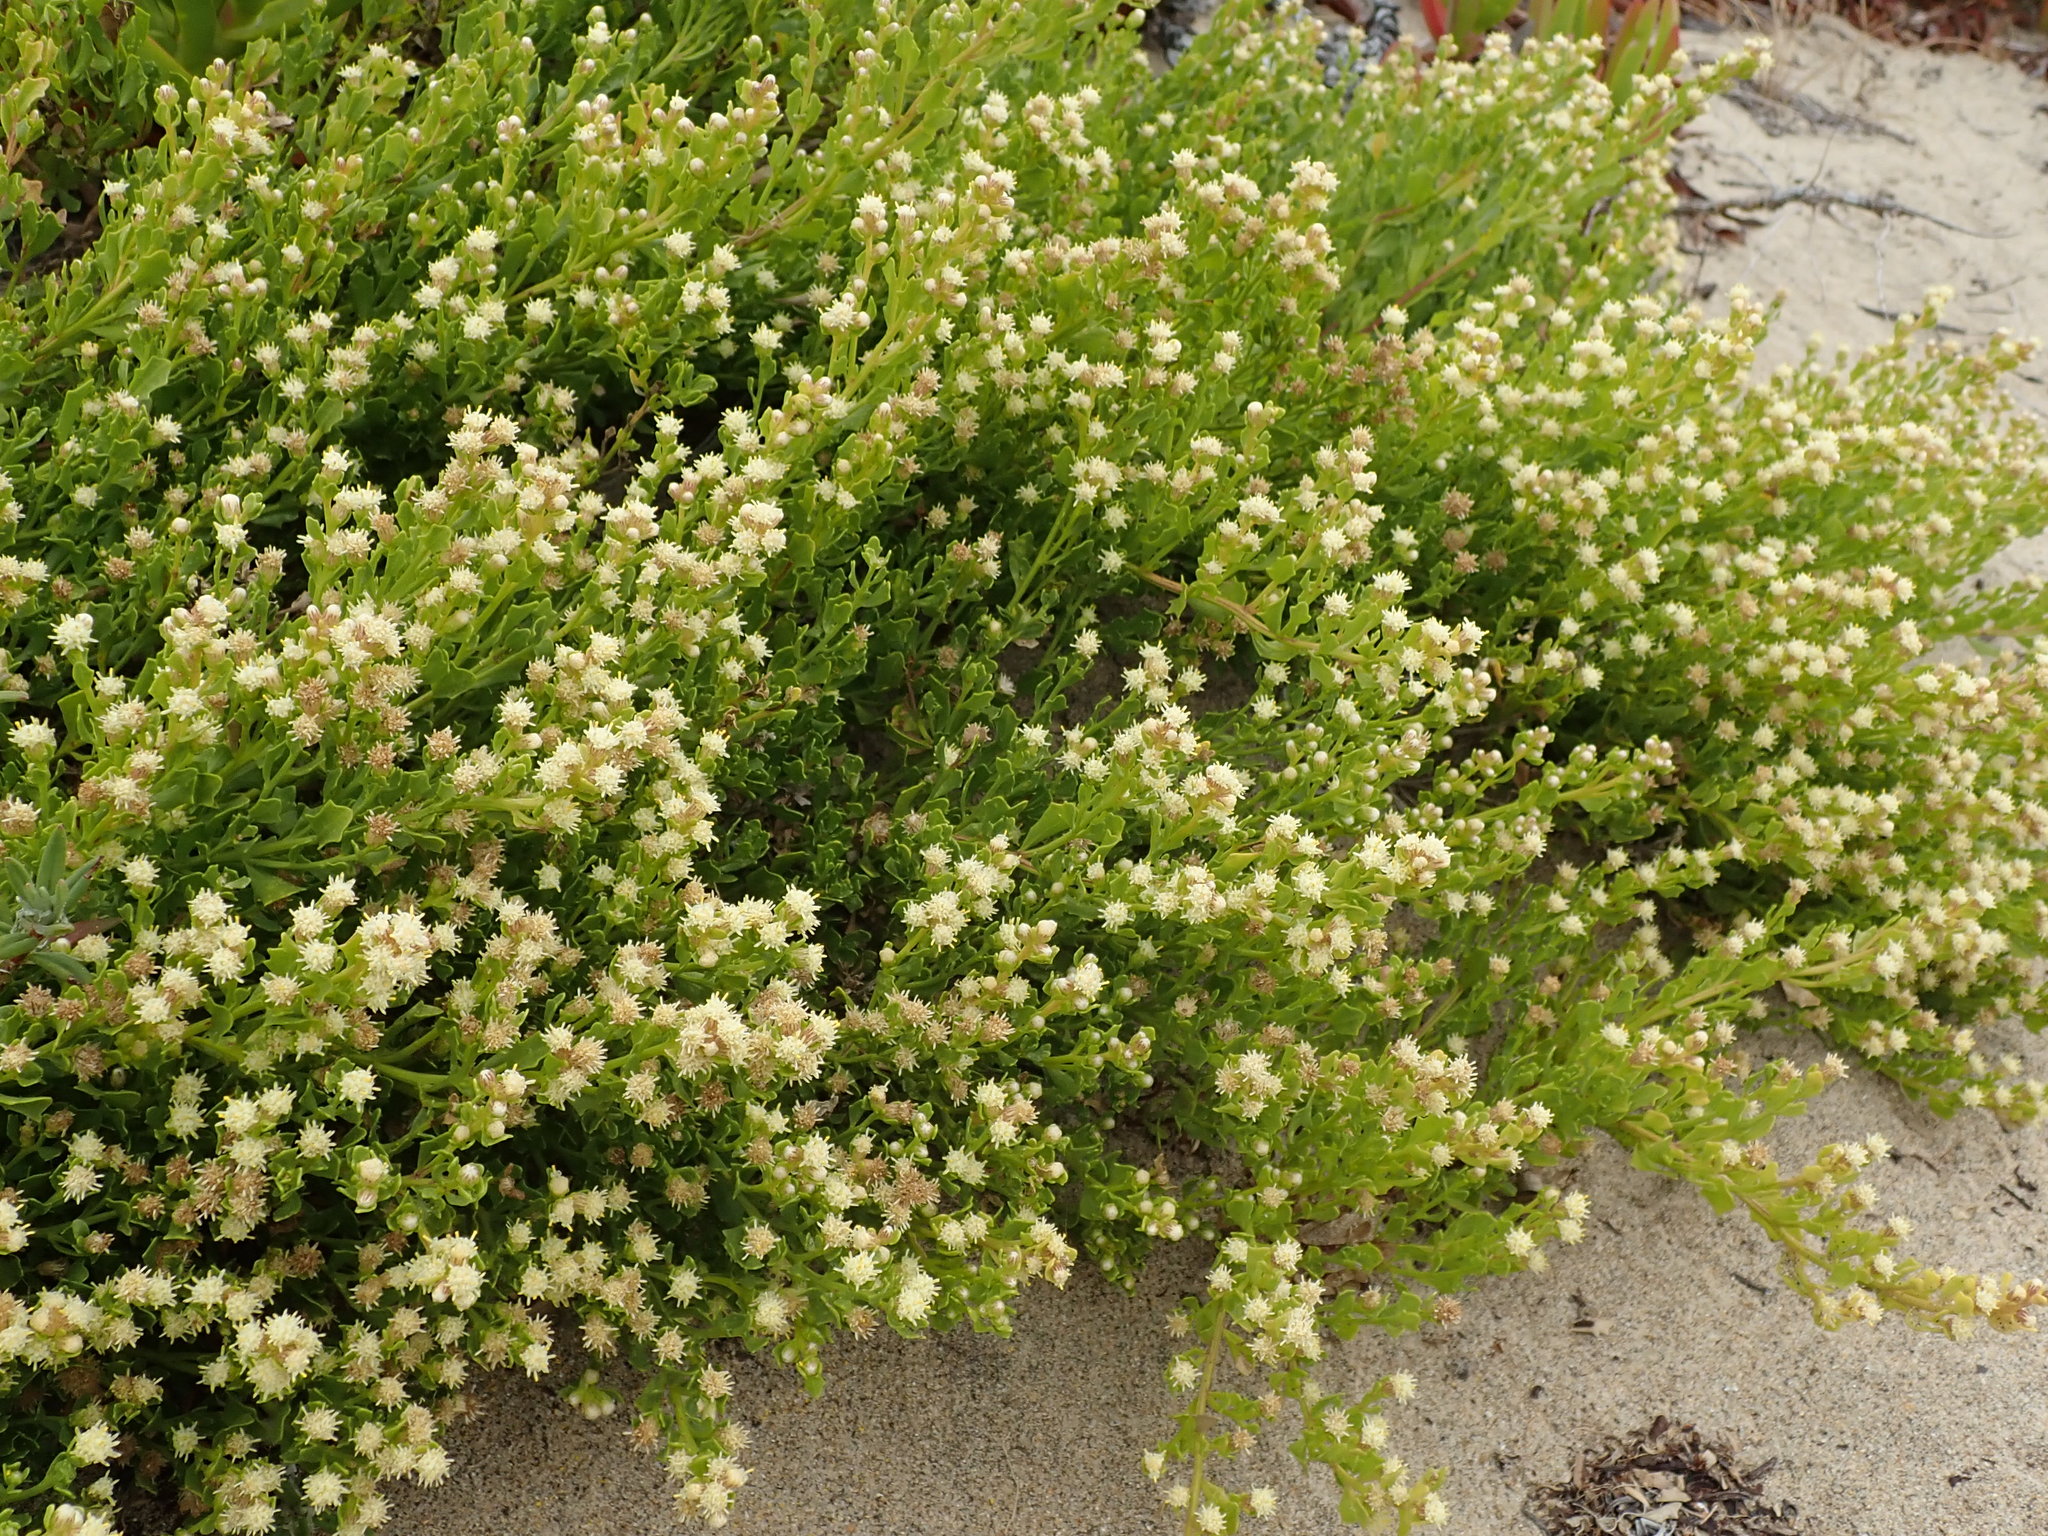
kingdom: Plantae
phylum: Tracheophyta
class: Magnoliopsida
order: Asterales
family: Asteraceae
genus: Baccharis
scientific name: Baccharis pilularis
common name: Coyotebrush
